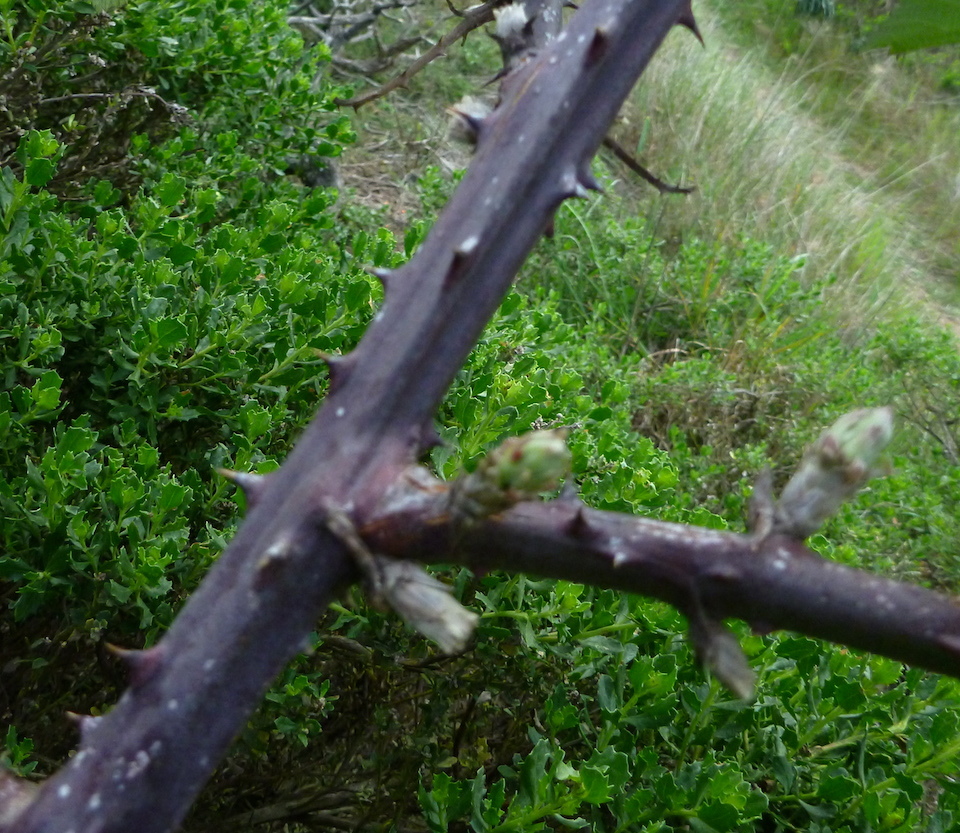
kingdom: Plantae
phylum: Tracheophyta
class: Magnoliopsida
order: Rosales
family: Rosaceae
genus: Rubus
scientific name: Rubus armeniacus
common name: Himalayan blackberry
